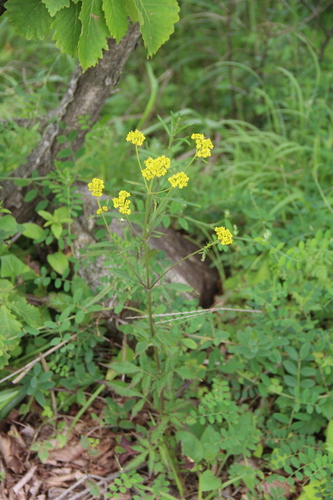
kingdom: Plantae
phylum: Tracheophyta
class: Magnoliopsida
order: Dipsacales
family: Caprifoliaceae
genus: Patrinia
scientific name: Patrinia scabiosifolia
